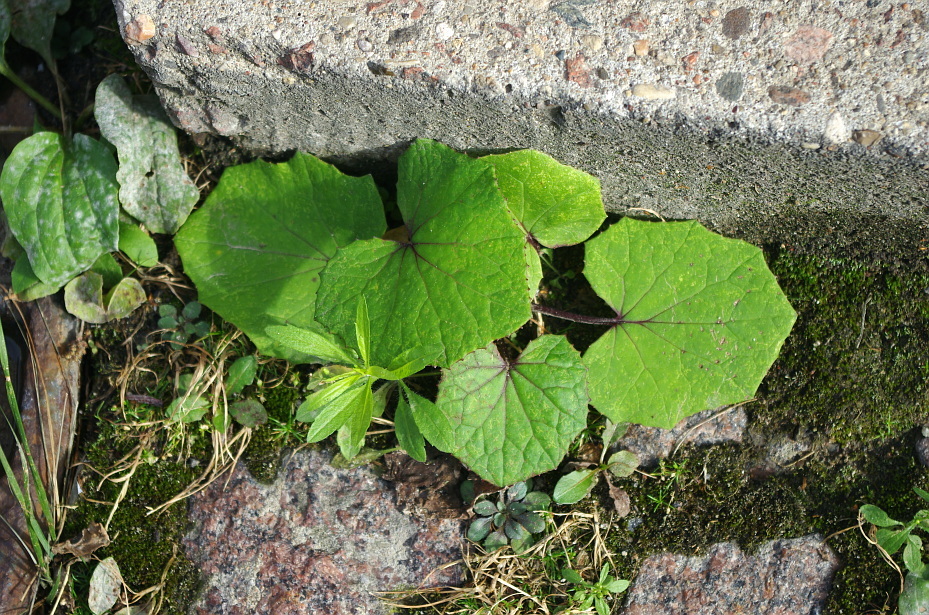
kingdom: Plantae
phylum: Tracheophyta
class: Magnoliopsida
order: Asterales
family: Asteraceae
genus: Tussilago
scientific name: Tussilago farfara
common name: Coltsfoot
